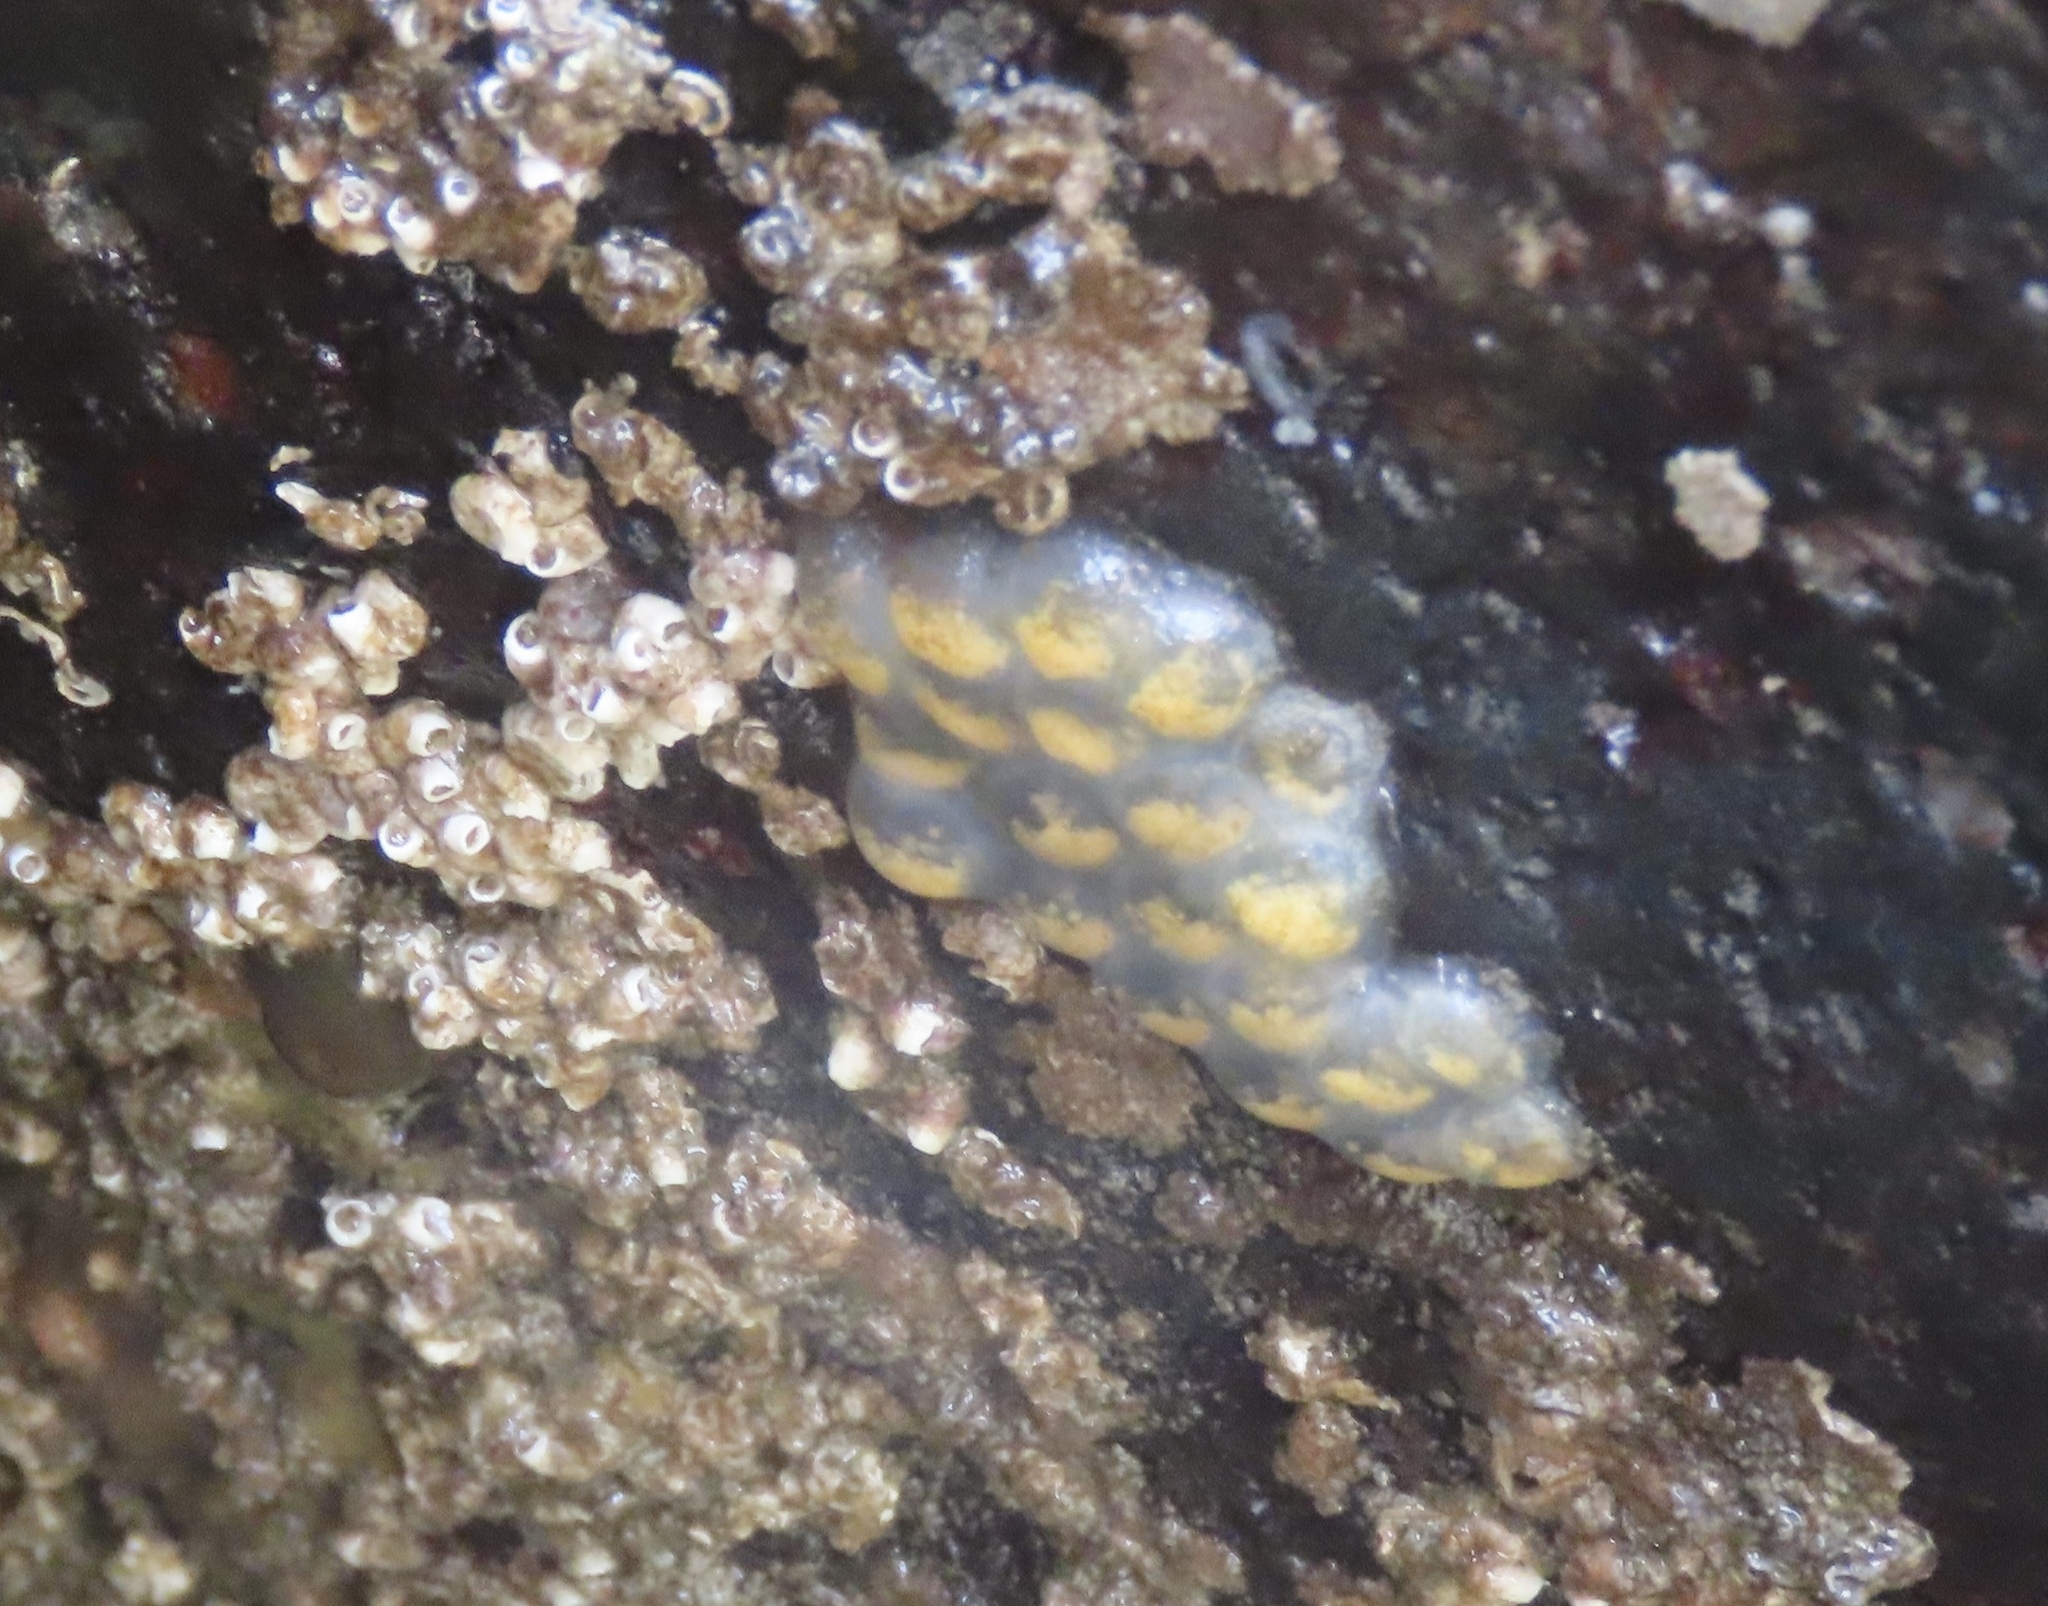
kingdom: Animalia
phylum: Mollusca
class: Gastropoda
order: Neogastropoda
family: Tudiclidae
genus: Lirabuccinum
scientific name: Lirabuccinum dirum
